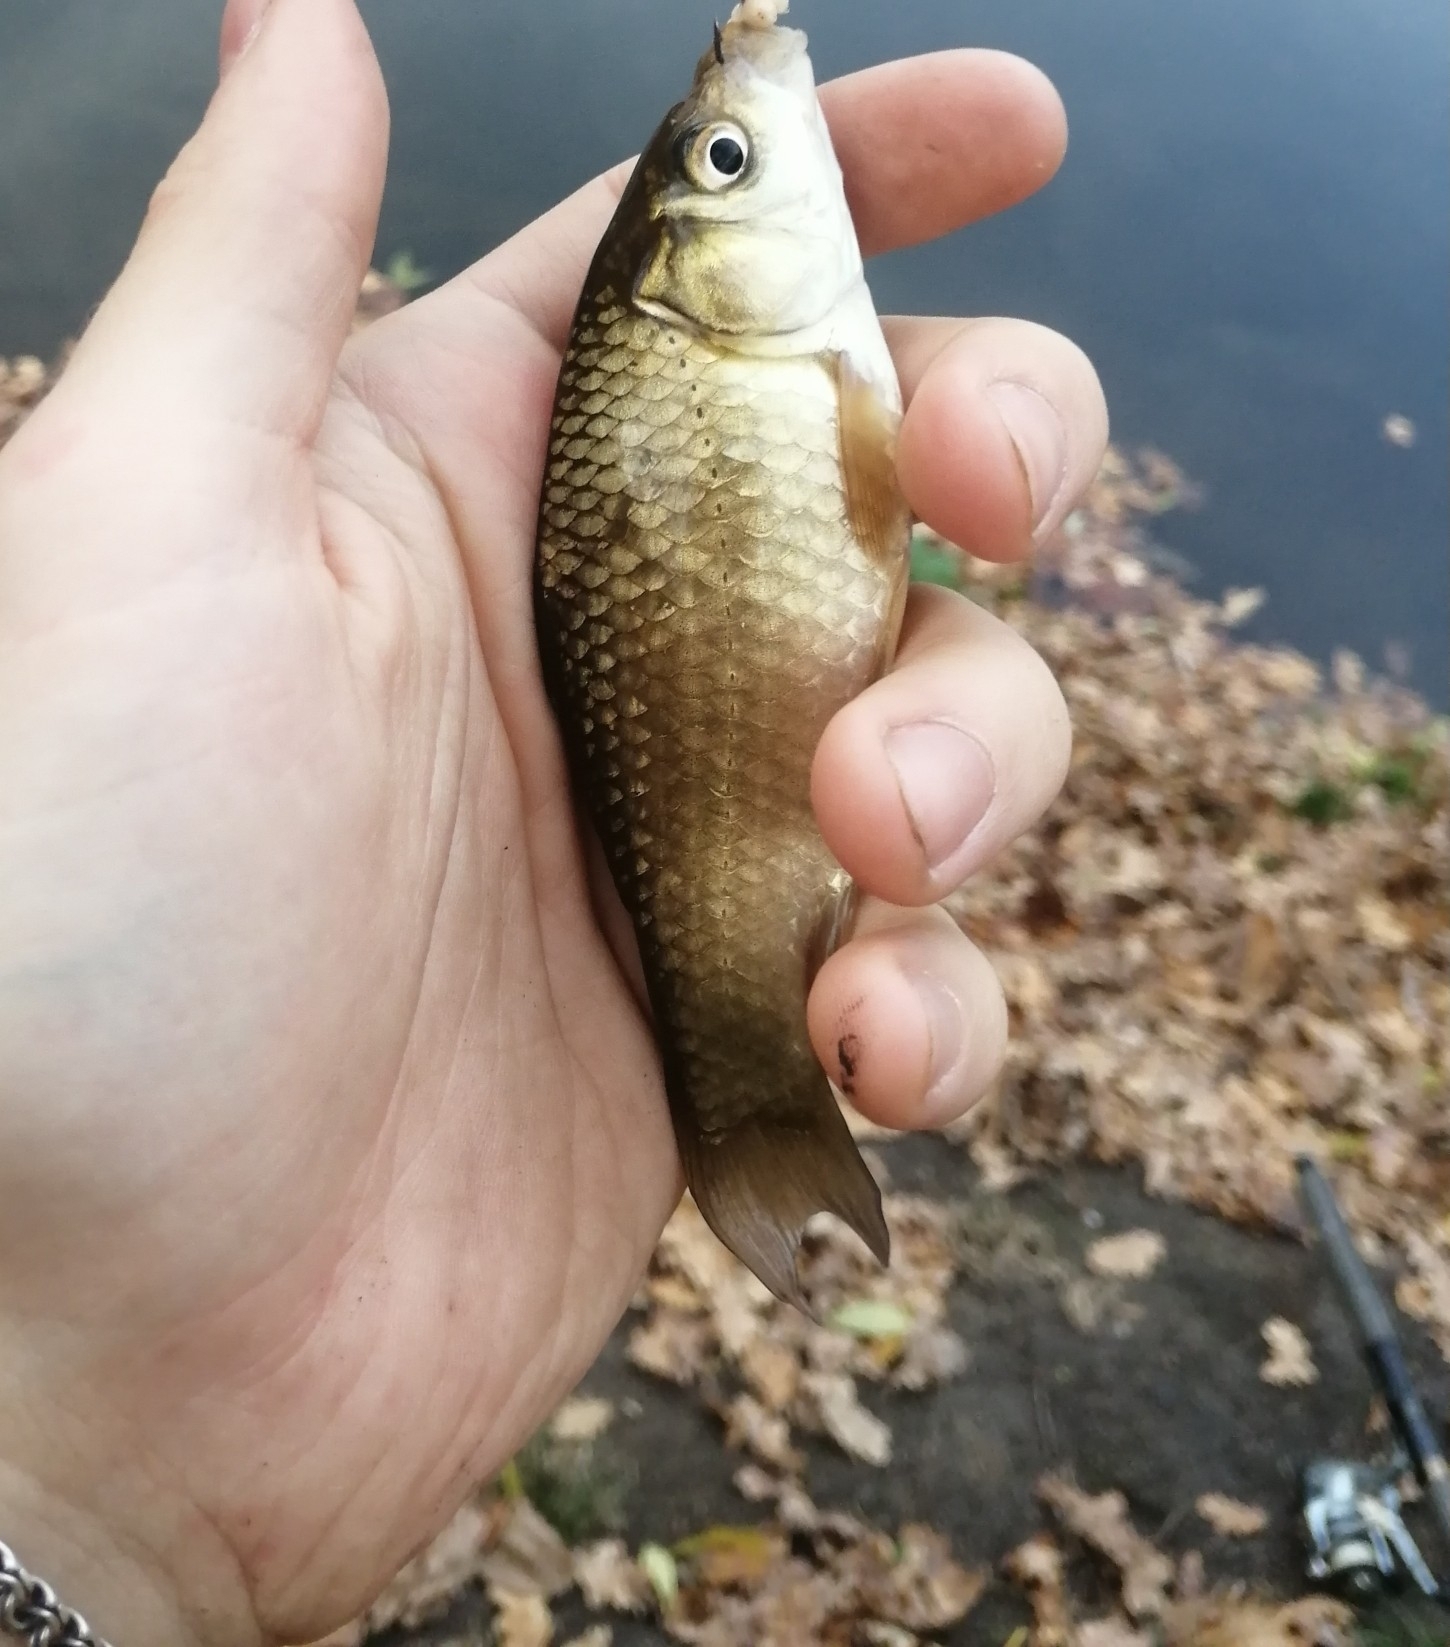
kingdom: Animalia
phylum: Chordata
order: Cypriniformes
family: Cyprinidae
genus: Carassius
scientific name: Carassius gibelio
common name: Prussian carp
